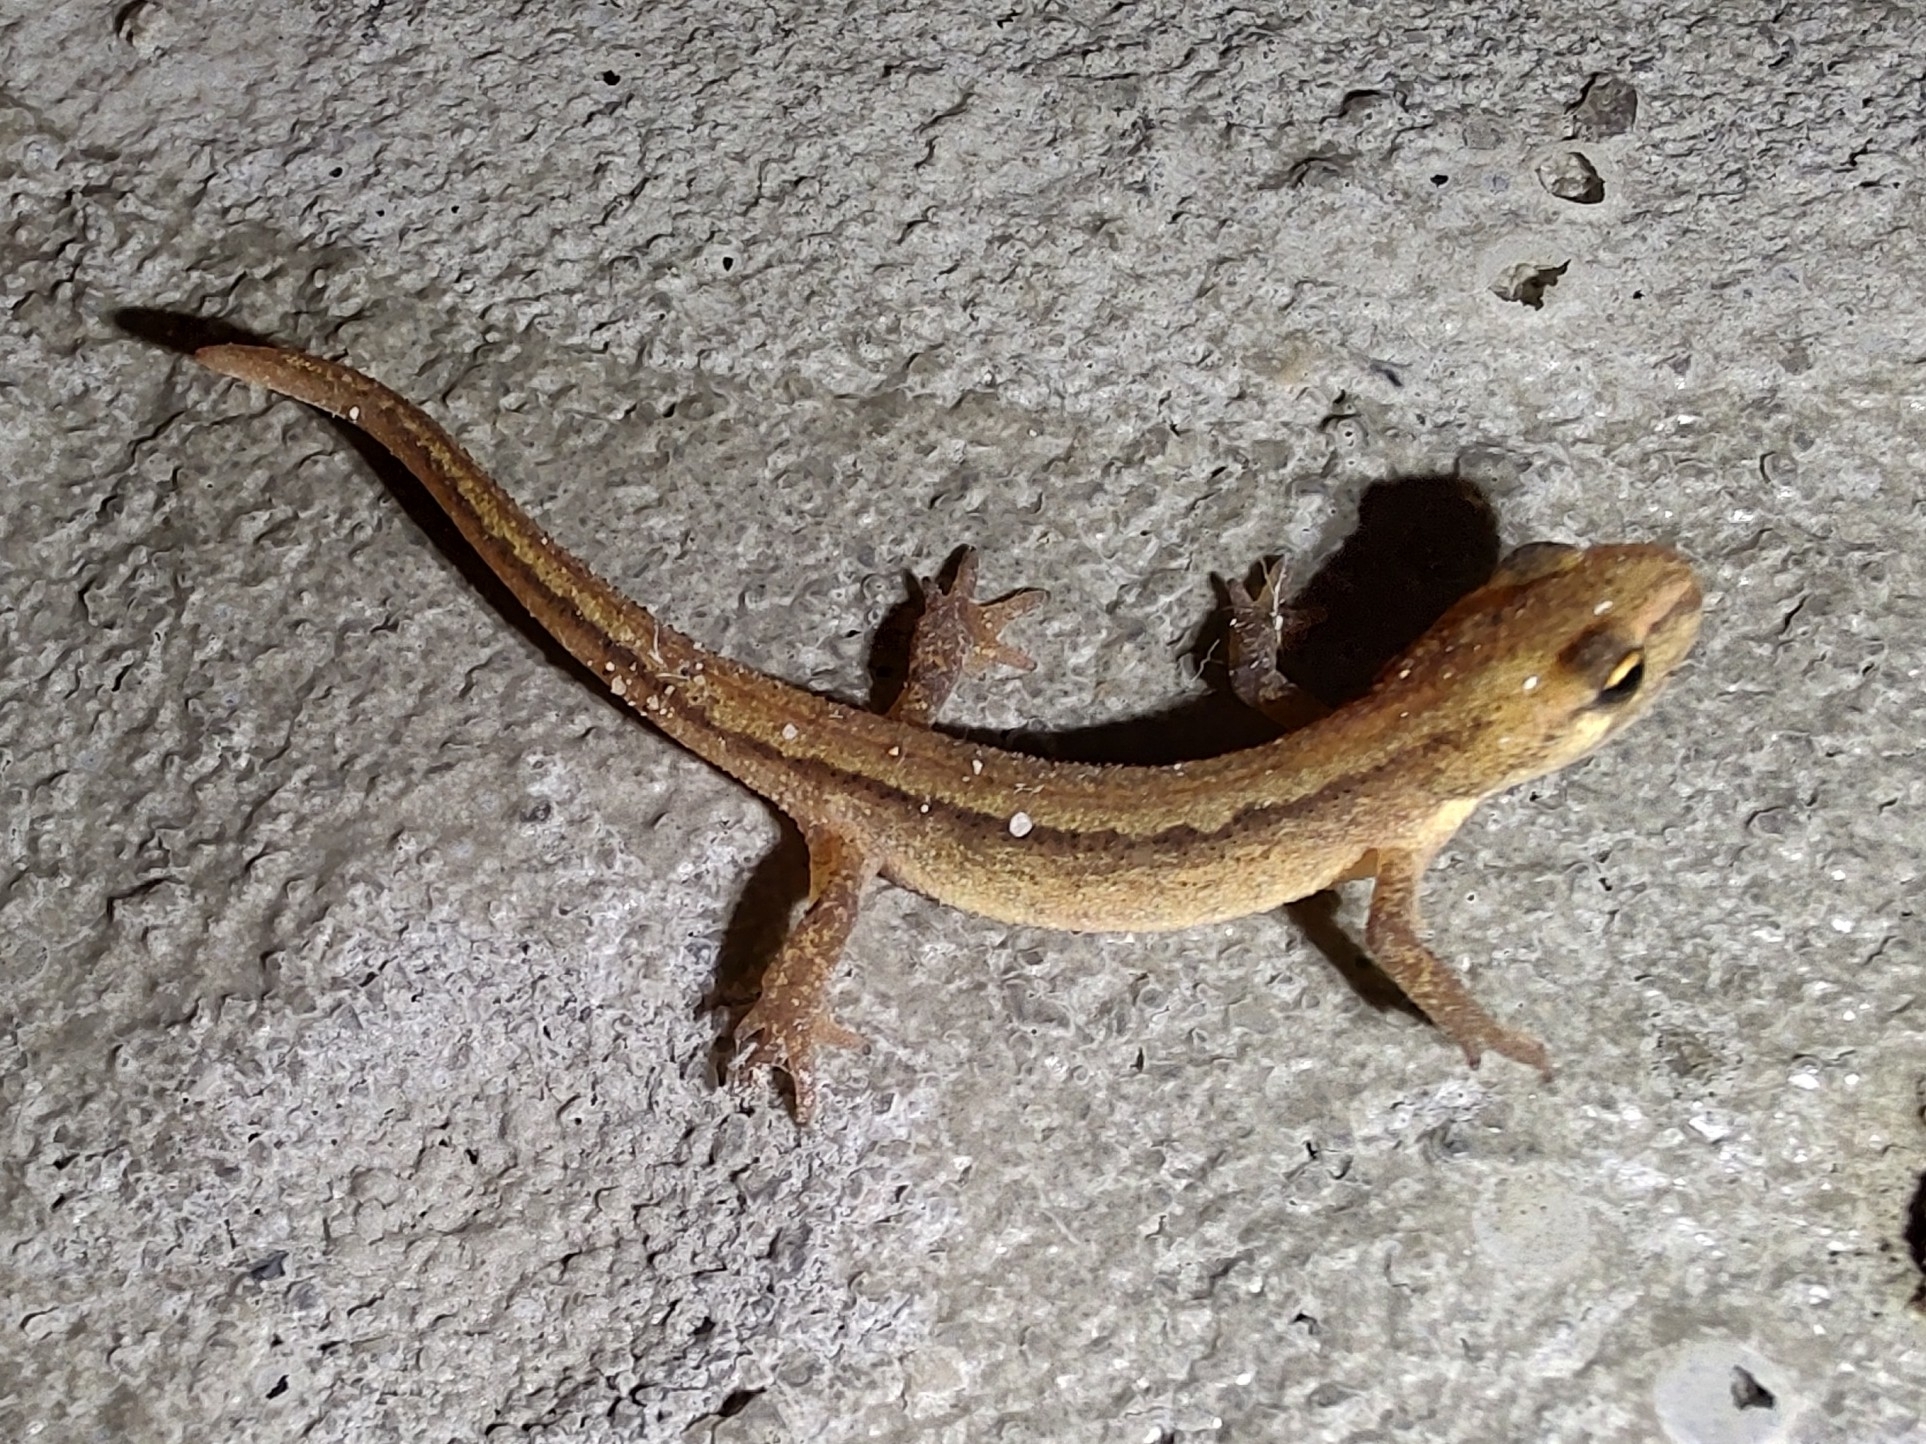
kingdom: Animalia
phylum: Chordata
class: Amphibia
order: Caudata
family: Salamandridae
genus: Lissotriton
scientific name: Lissotriton vulgaris
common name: Smooth newt
